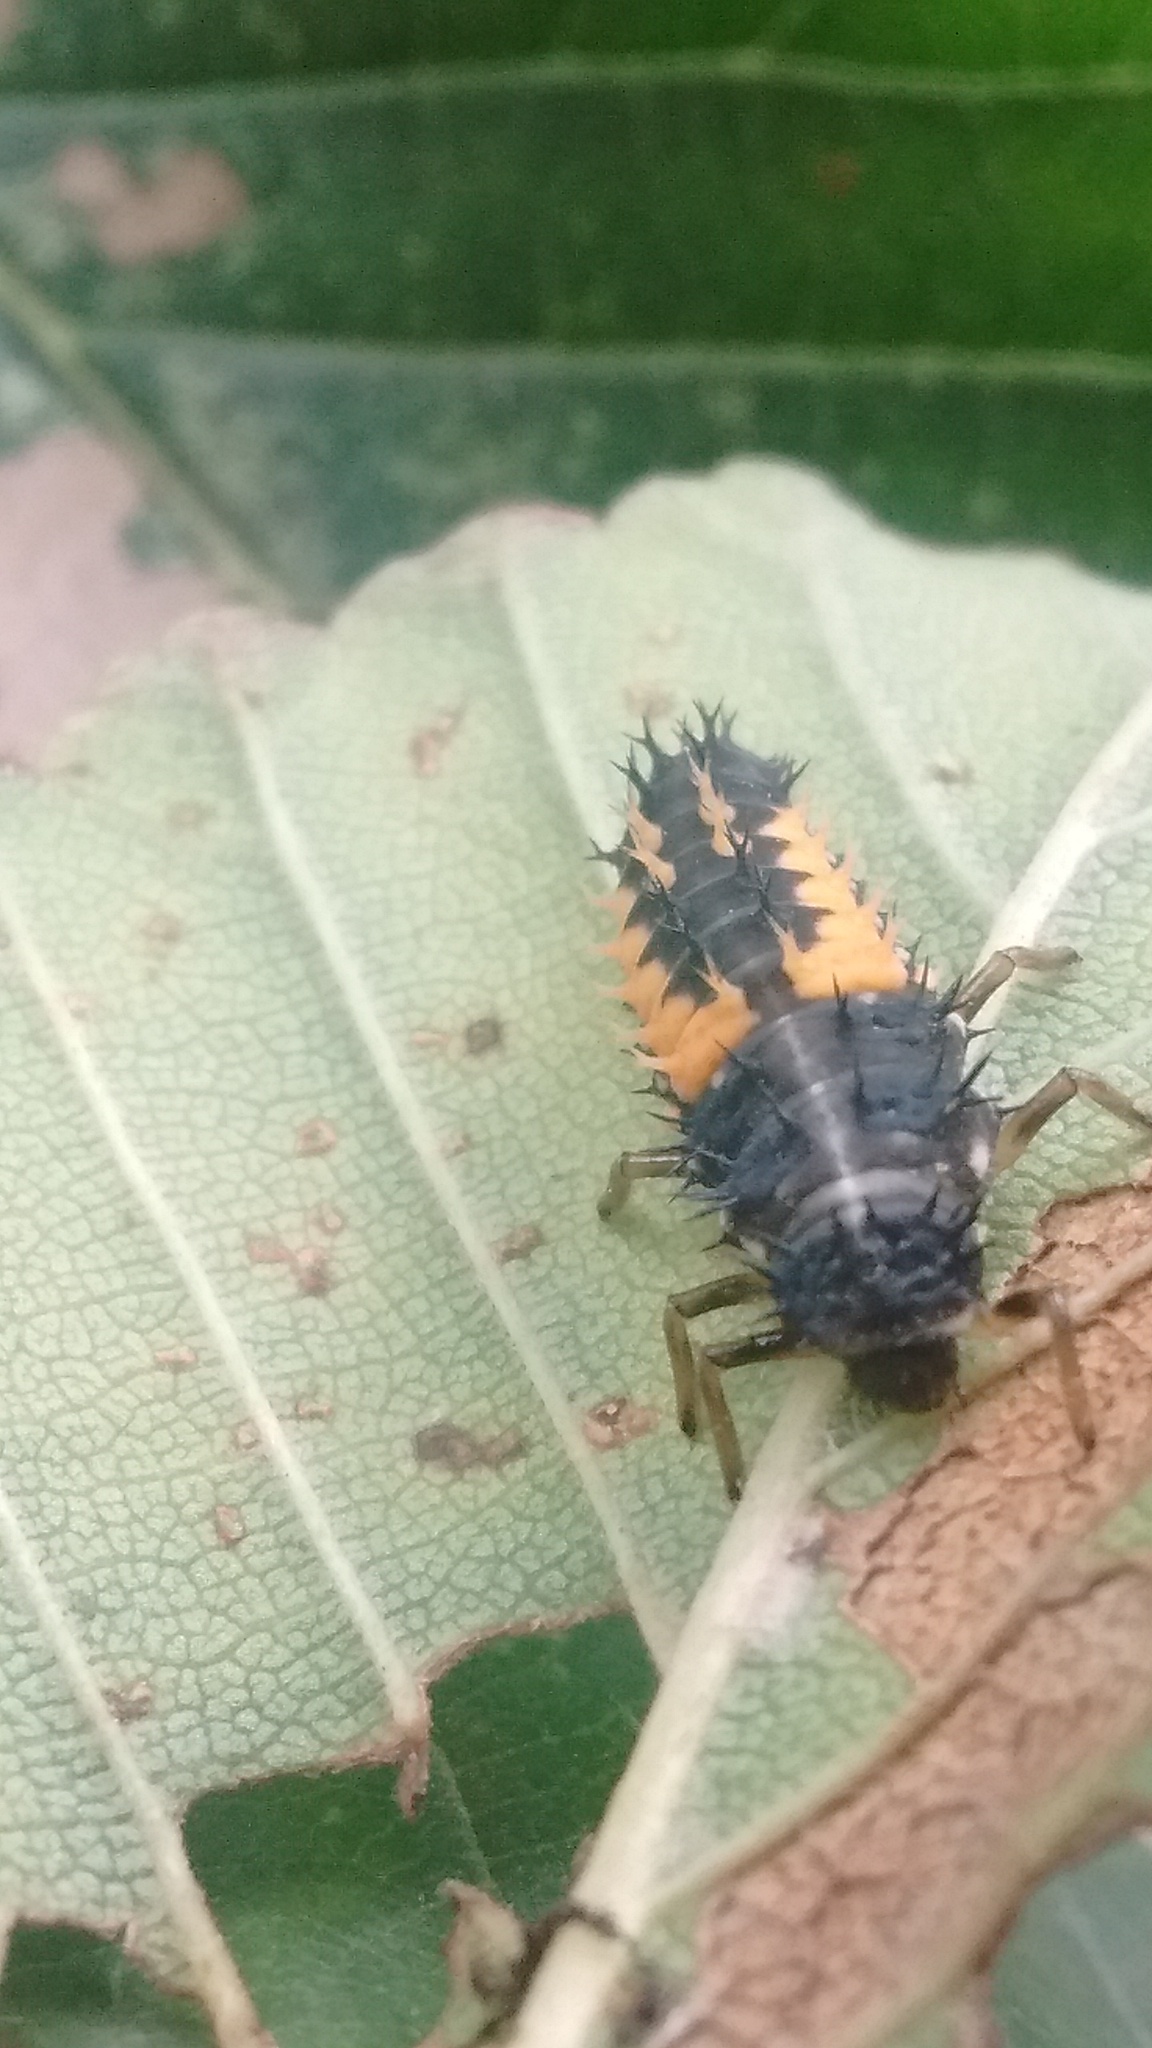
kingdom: Animalia
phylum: Arthropoda
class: Insecta
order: Coleoptera
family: Coccinellidae
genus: Harmonia
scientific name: Harmonia axyridis
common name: Harlequin ladybird
